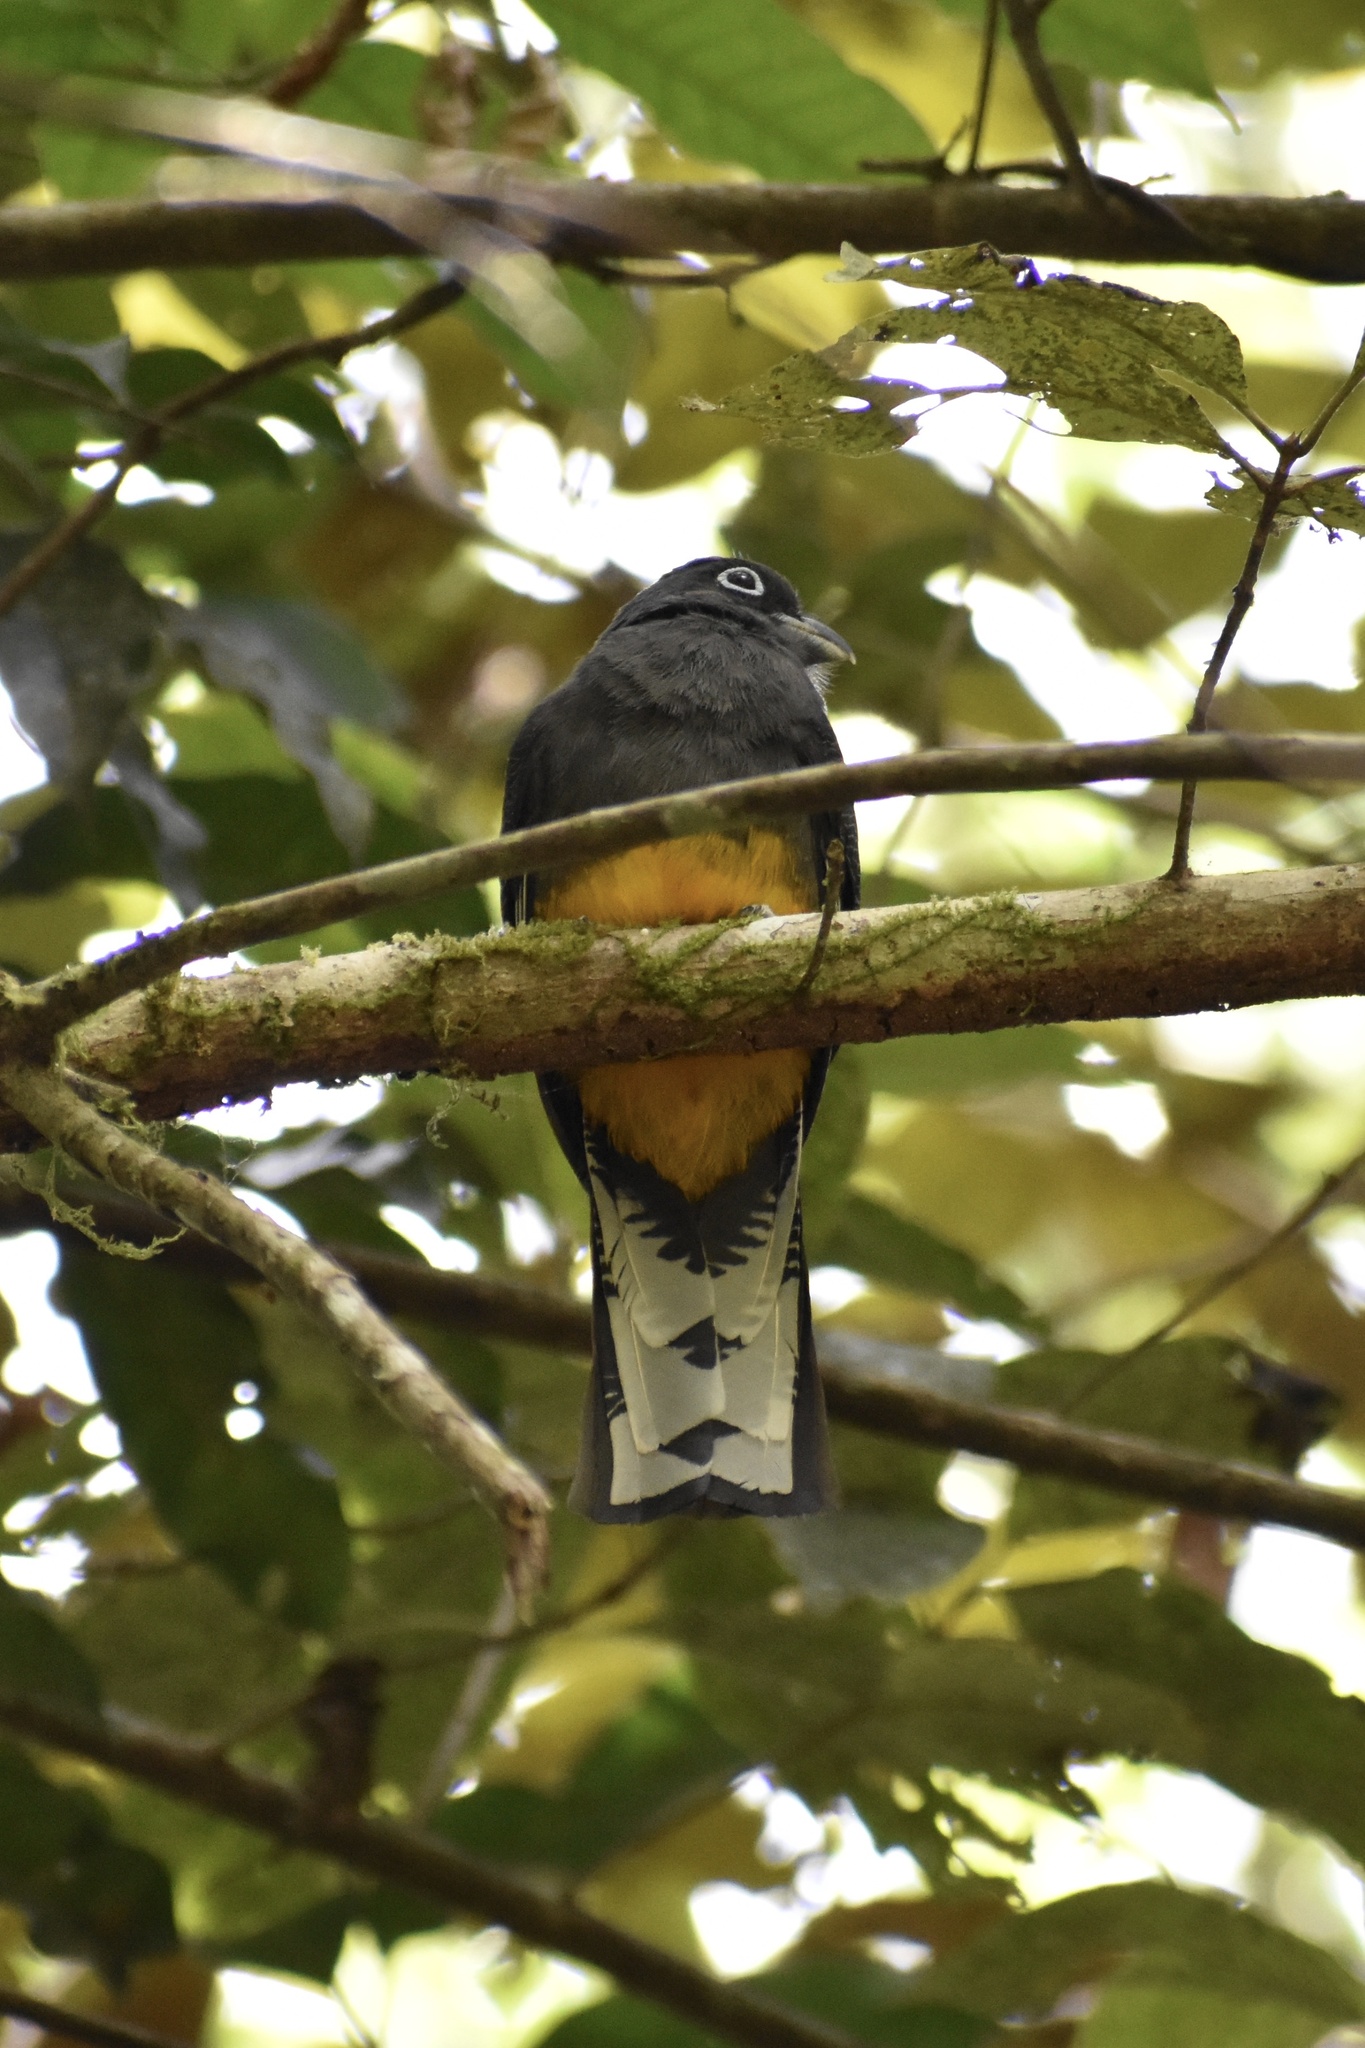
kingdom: Animalia
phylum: Chordata
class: Aves
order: Trogoniformes
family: Trogonidae
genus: Trogon
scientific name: Trogon chionurus
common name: White-tailed trogon
